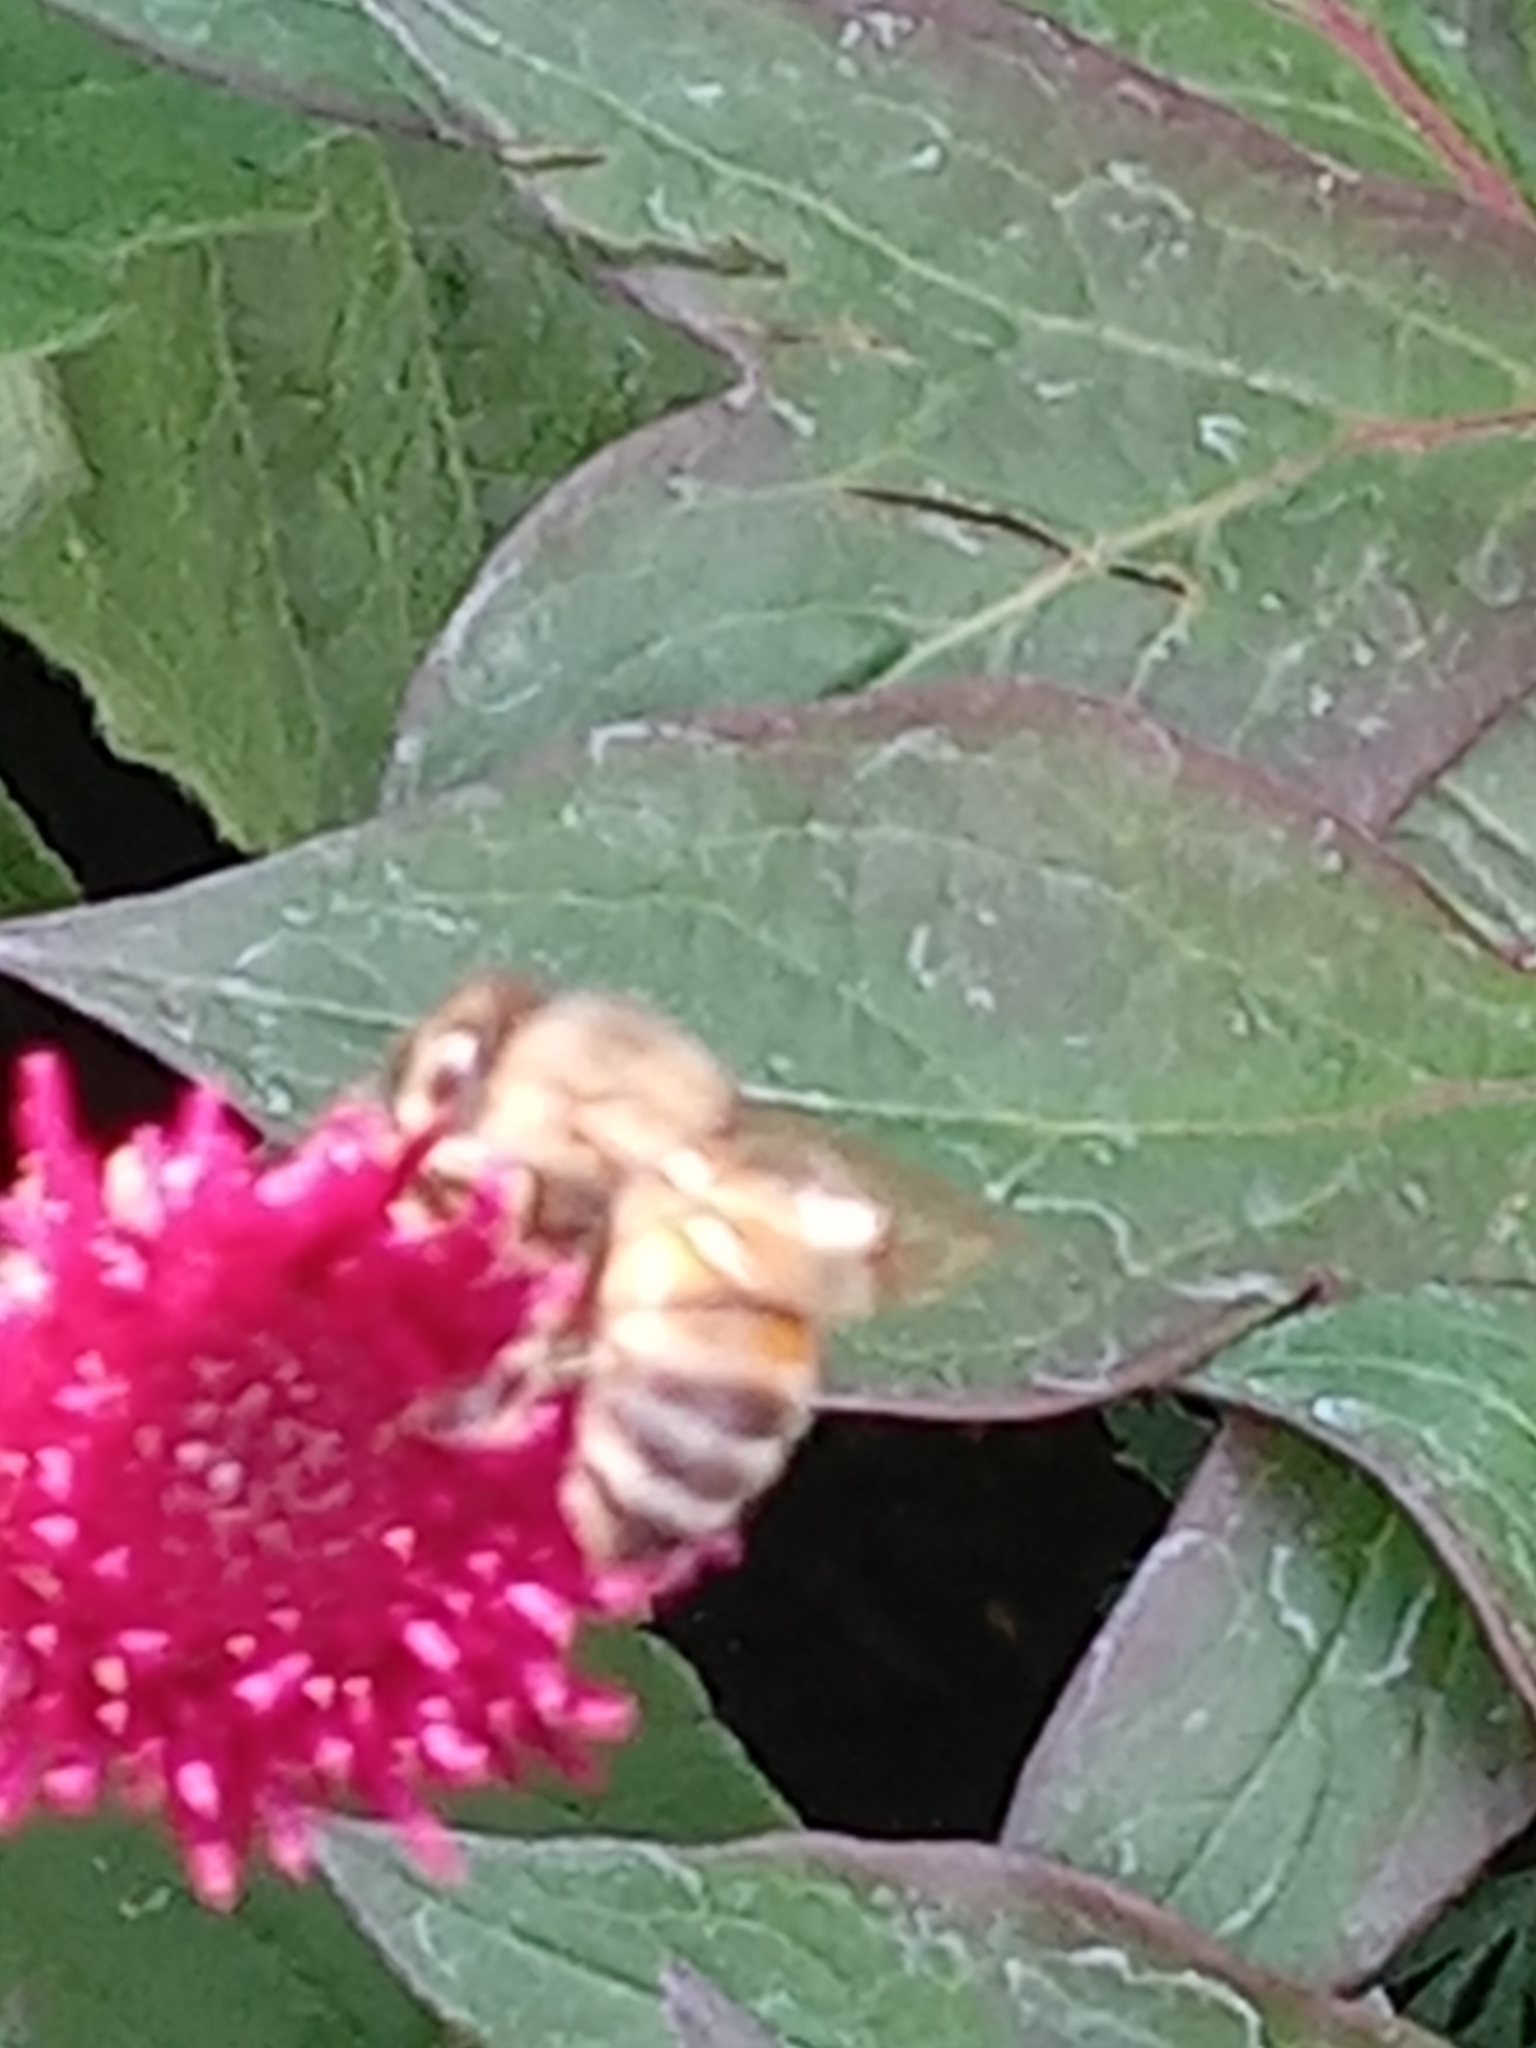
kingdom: Animalia
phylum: Arthropoda
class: Insecta
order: Hymenoptera
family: Apidae
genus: Apis
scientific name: Apis mellifera
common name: Honey bee
